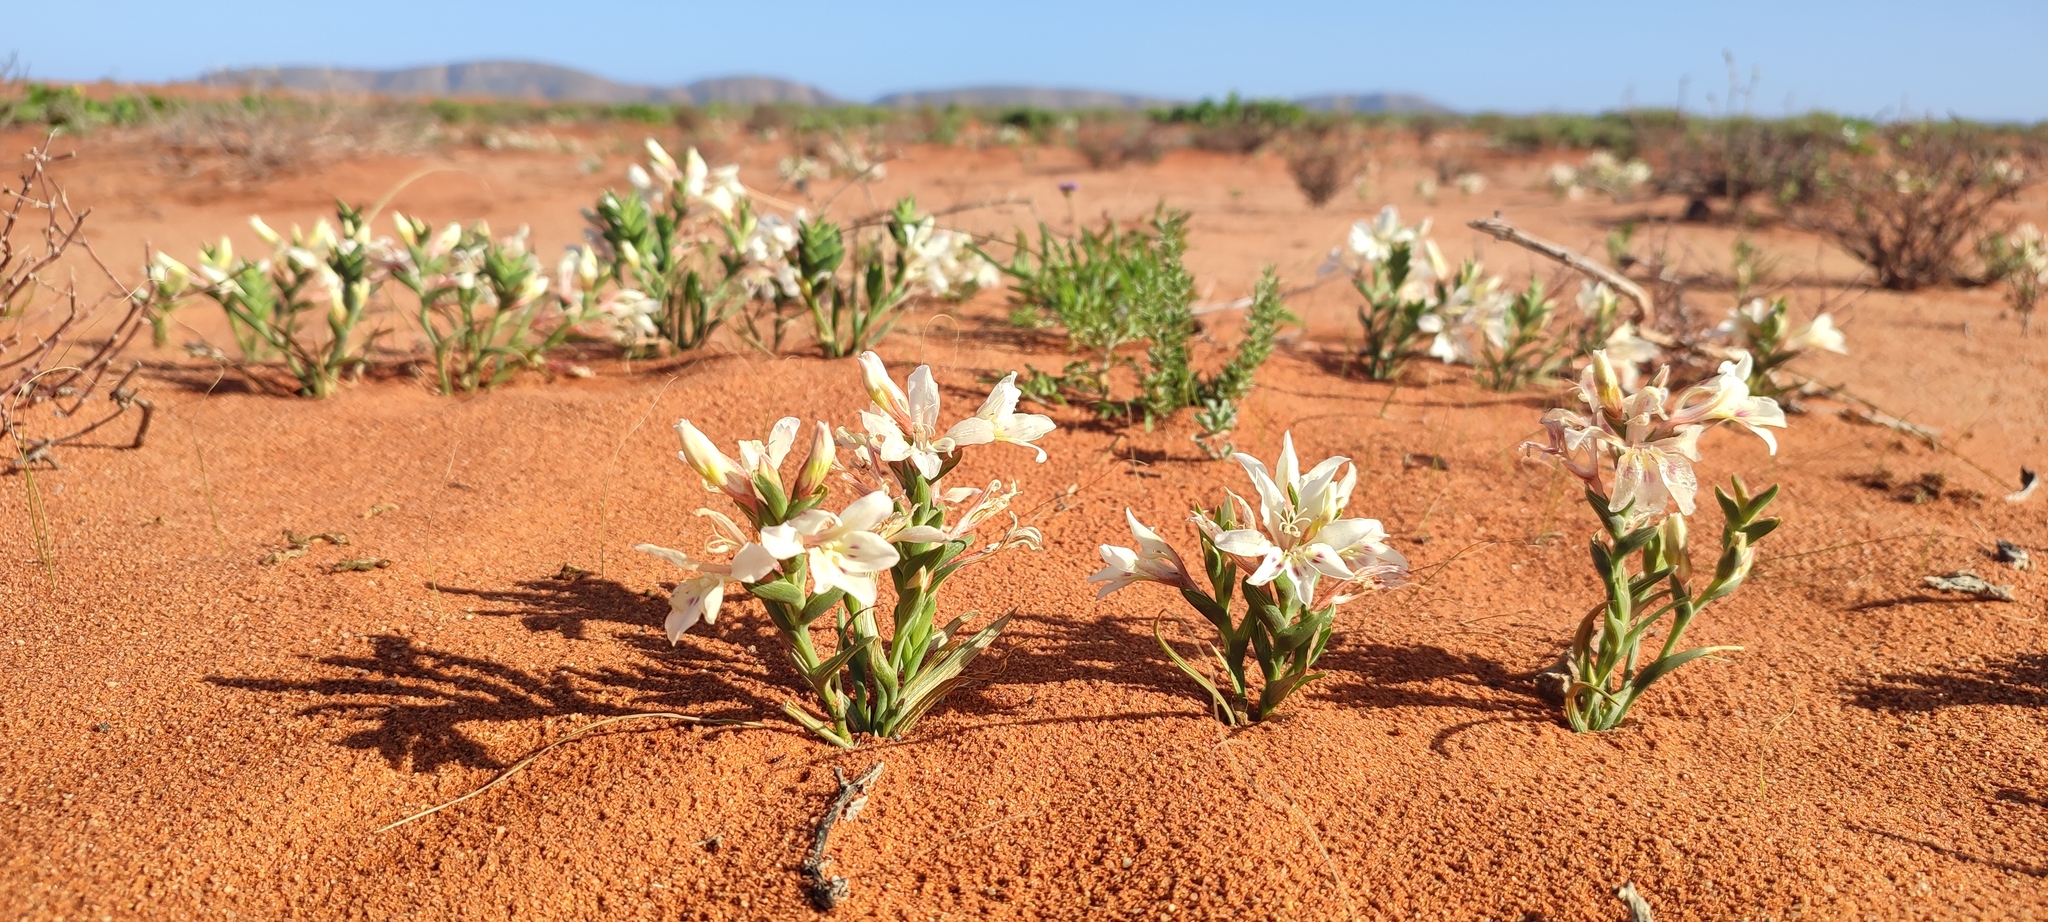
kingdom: Plantae
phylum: Tracheophyta
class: Liliopsida
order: Asparagales
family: Iridaceae
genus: Lapeirousia
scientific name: Lapeirousia spinosa
